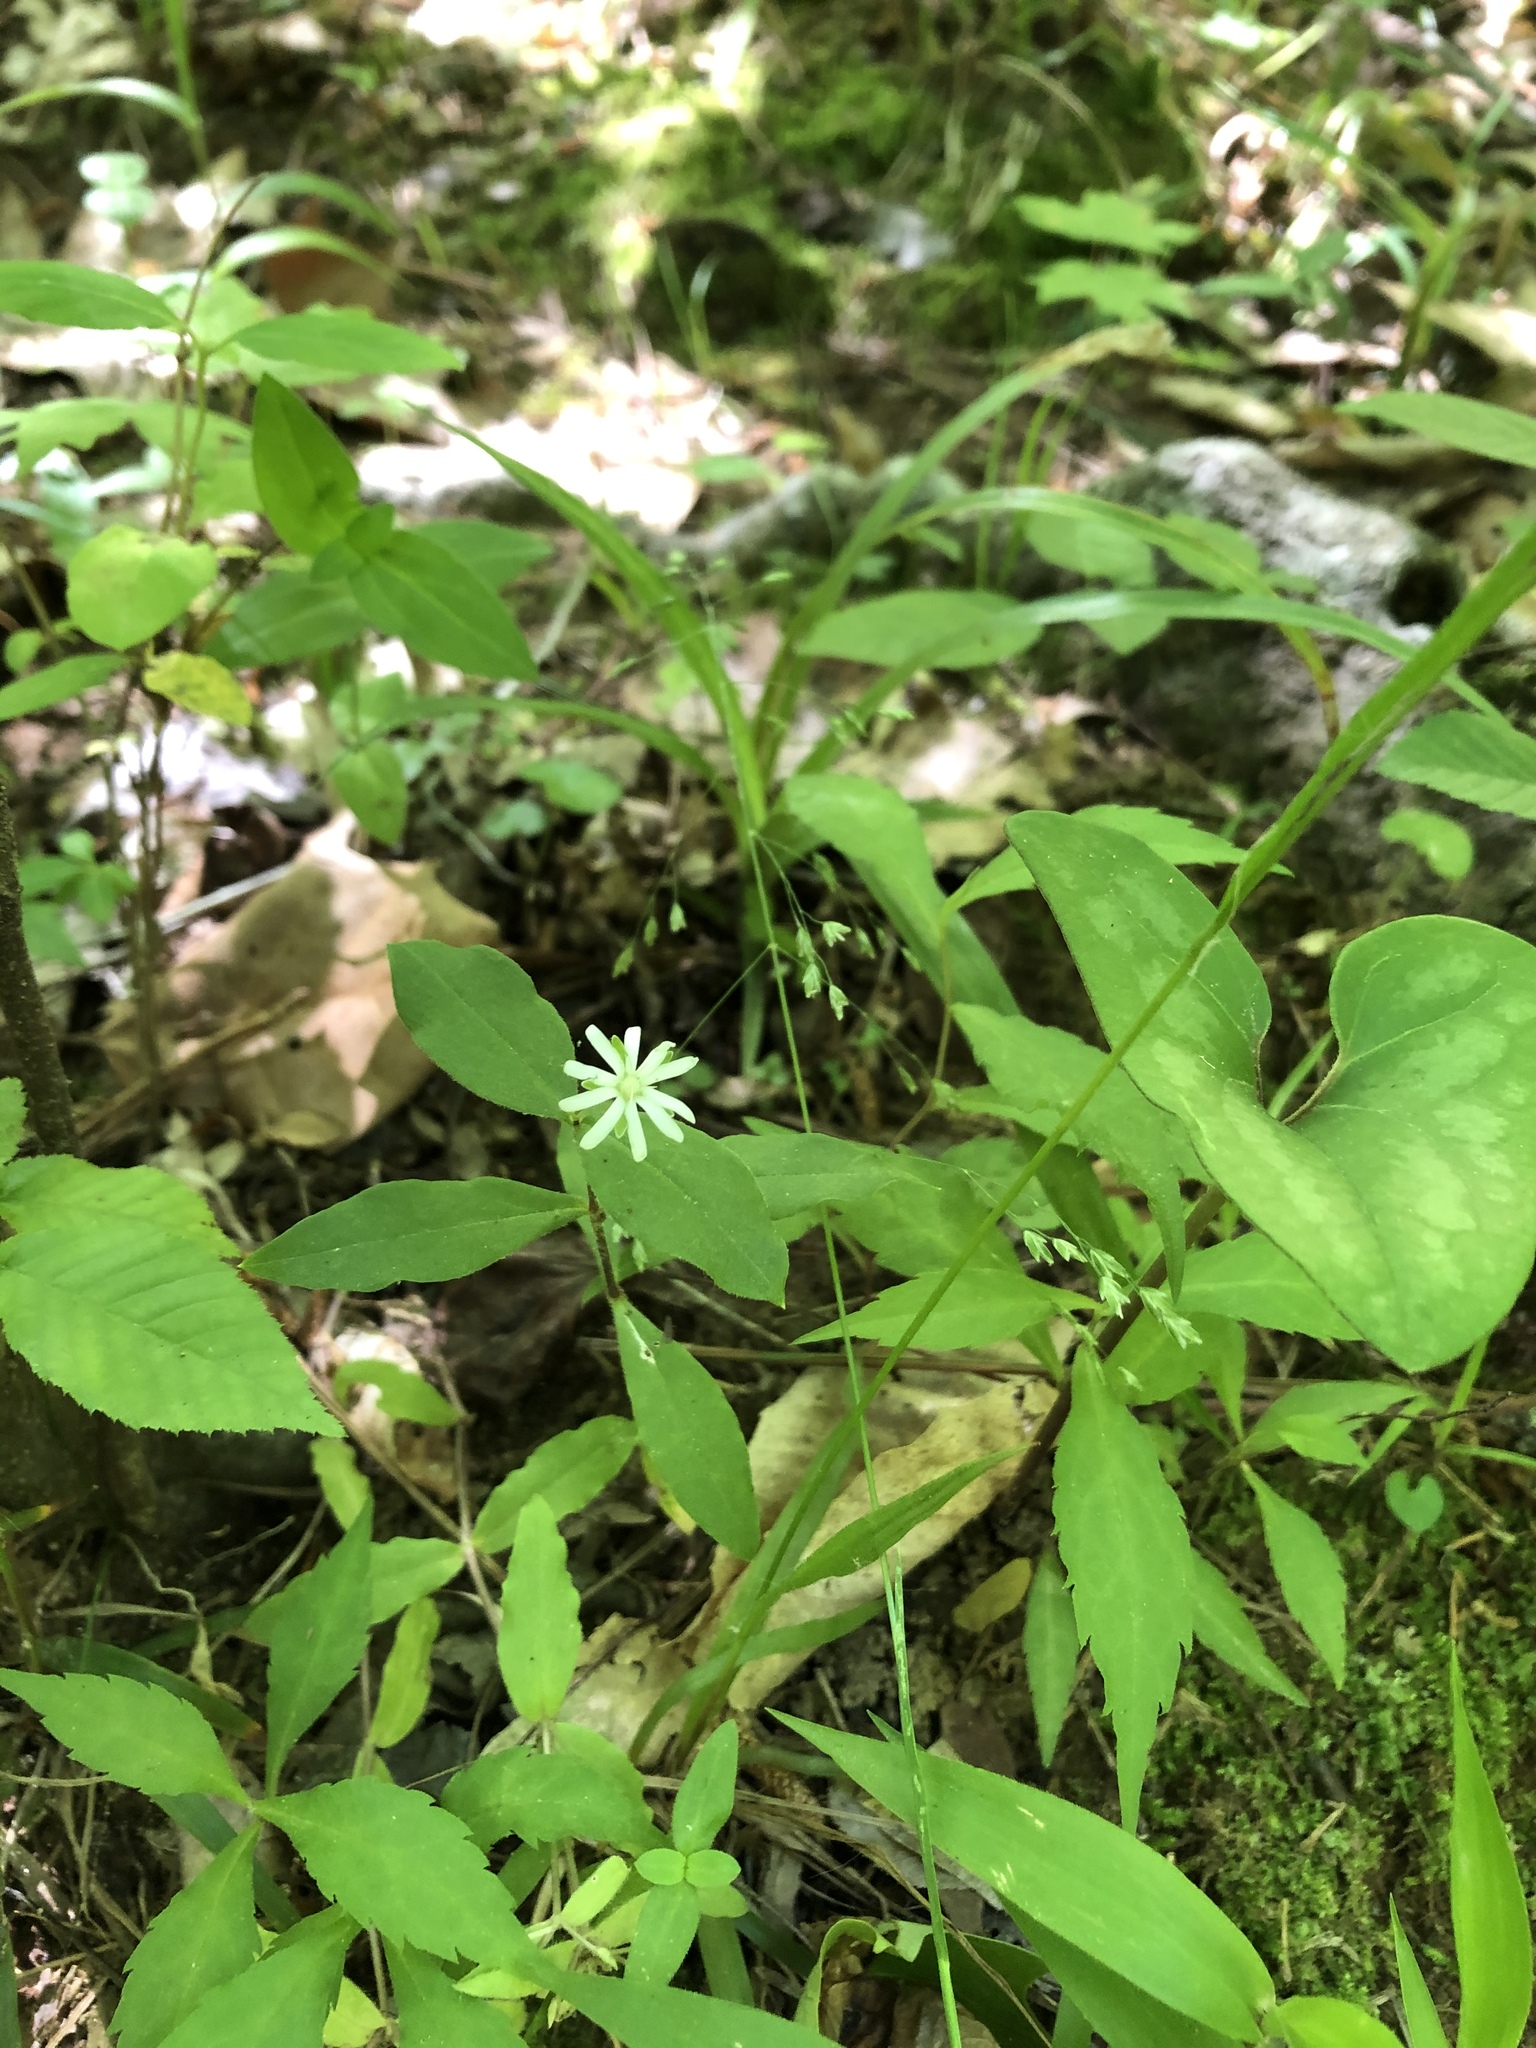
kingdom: Plantae
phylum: Tracheophyta
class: Magnoliopsida
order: Caryophyllales
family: Caryophyllaceae
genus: Stellaria
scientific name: Stellaria pubera
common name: Star chickweed
